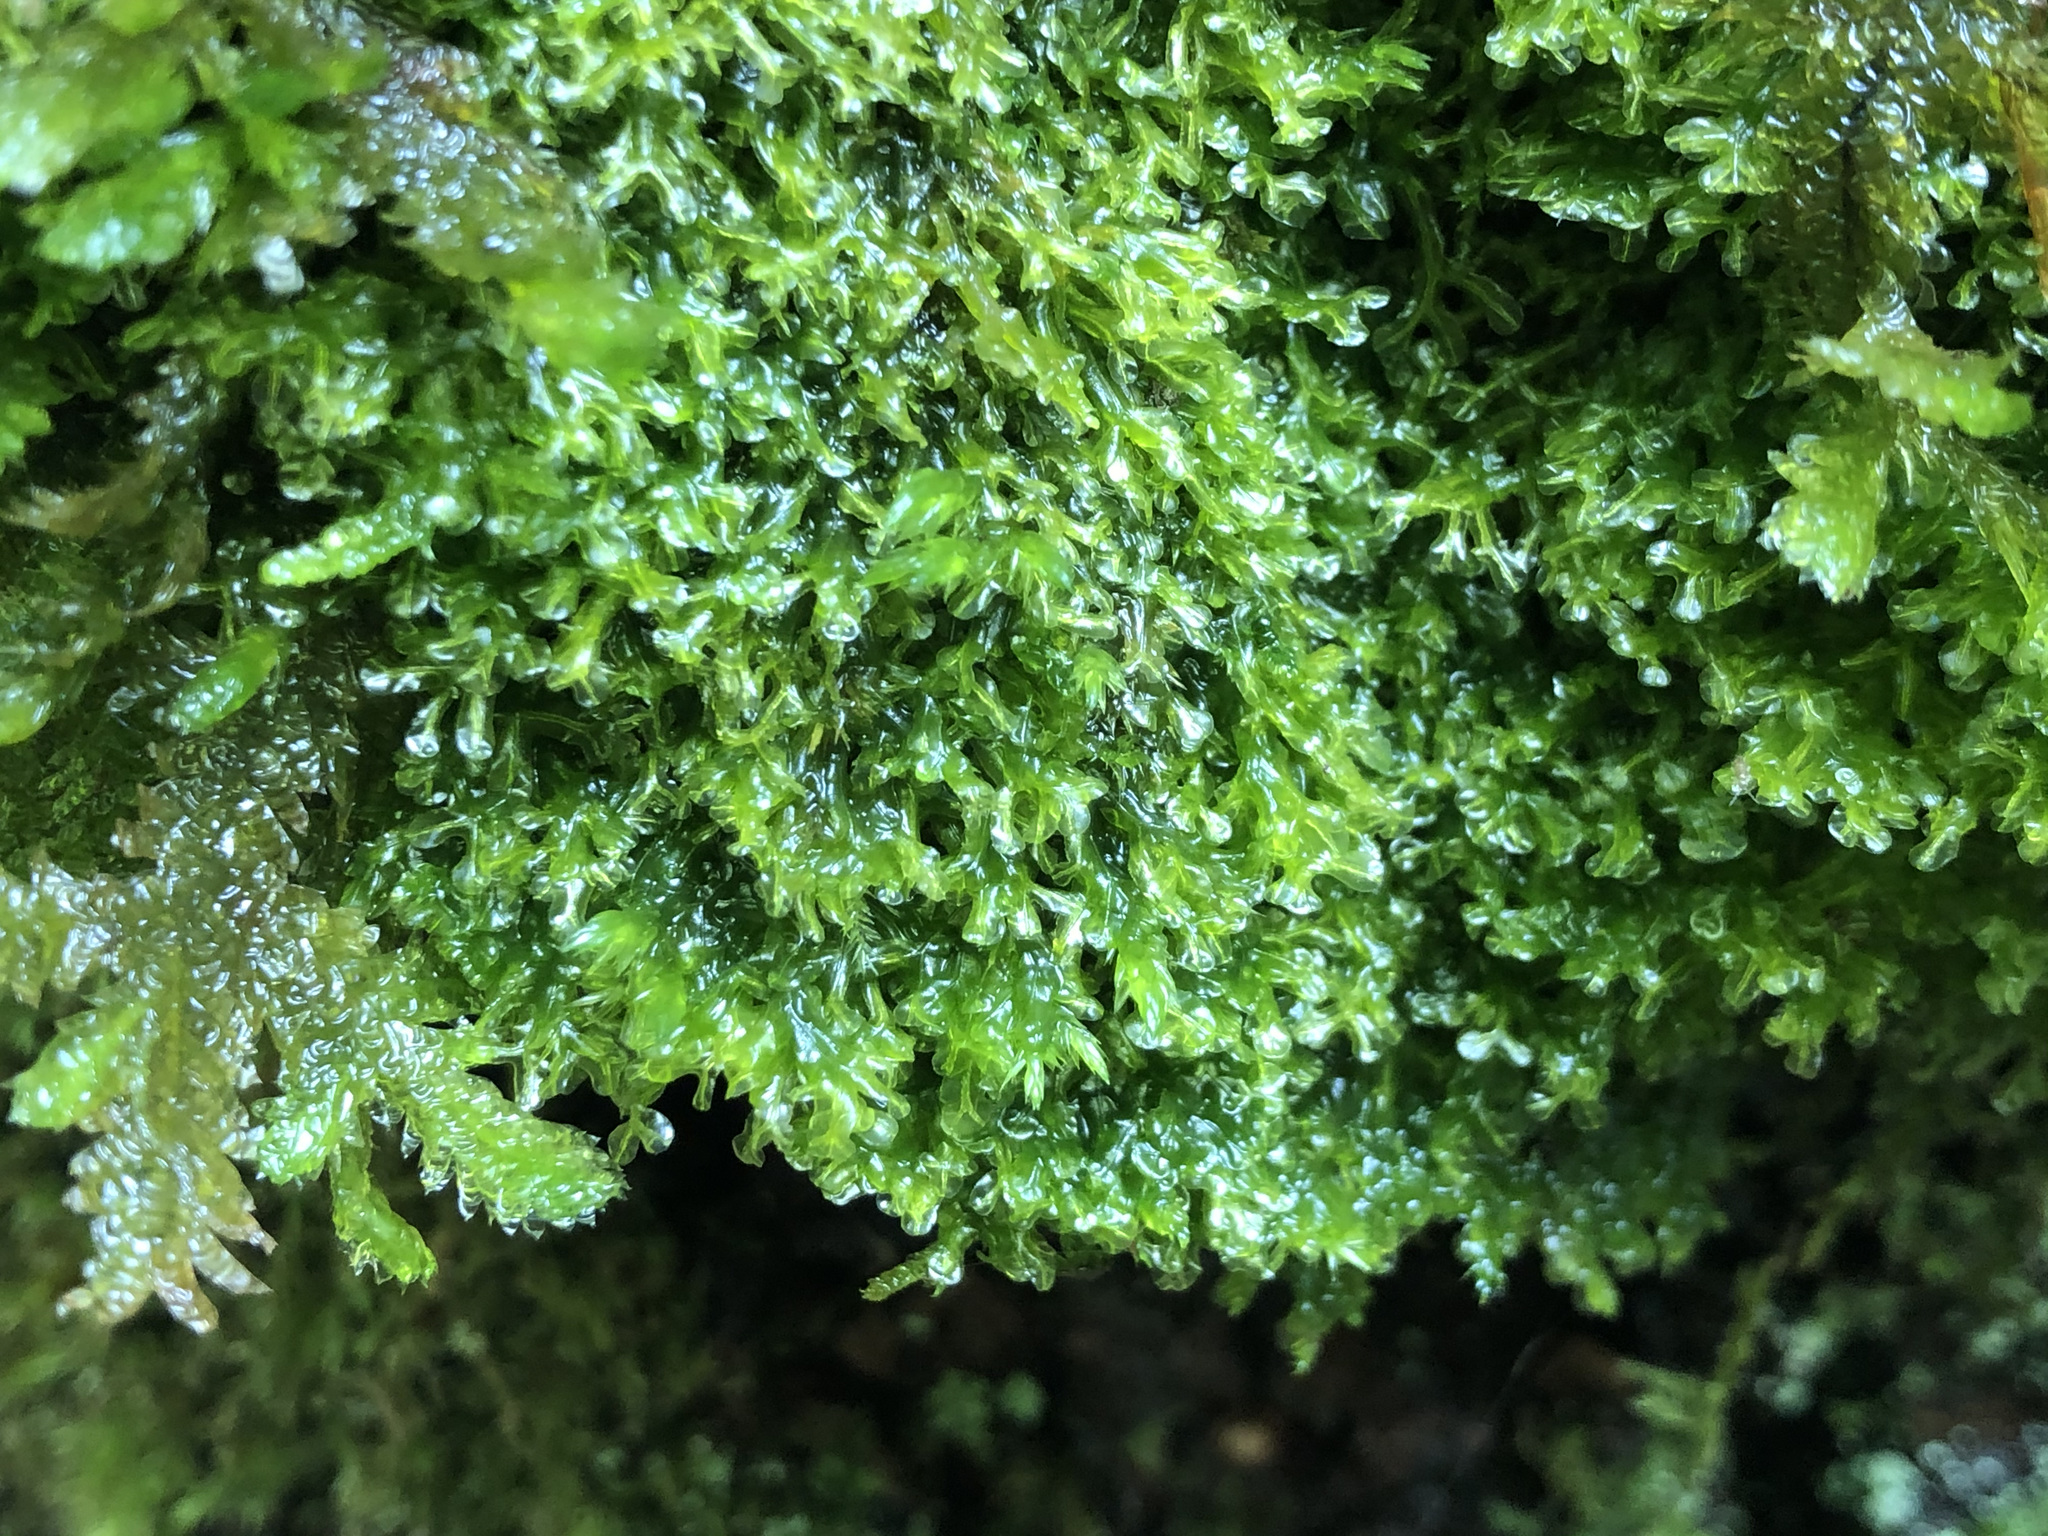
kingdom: Plantae
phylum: Marchantiophyta
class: Jungermanniopsida
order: Metzgeriales
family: Metzgeriaceae
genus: Metzgeria
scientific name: Metzgeria conjugata
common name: Rock veilwort
